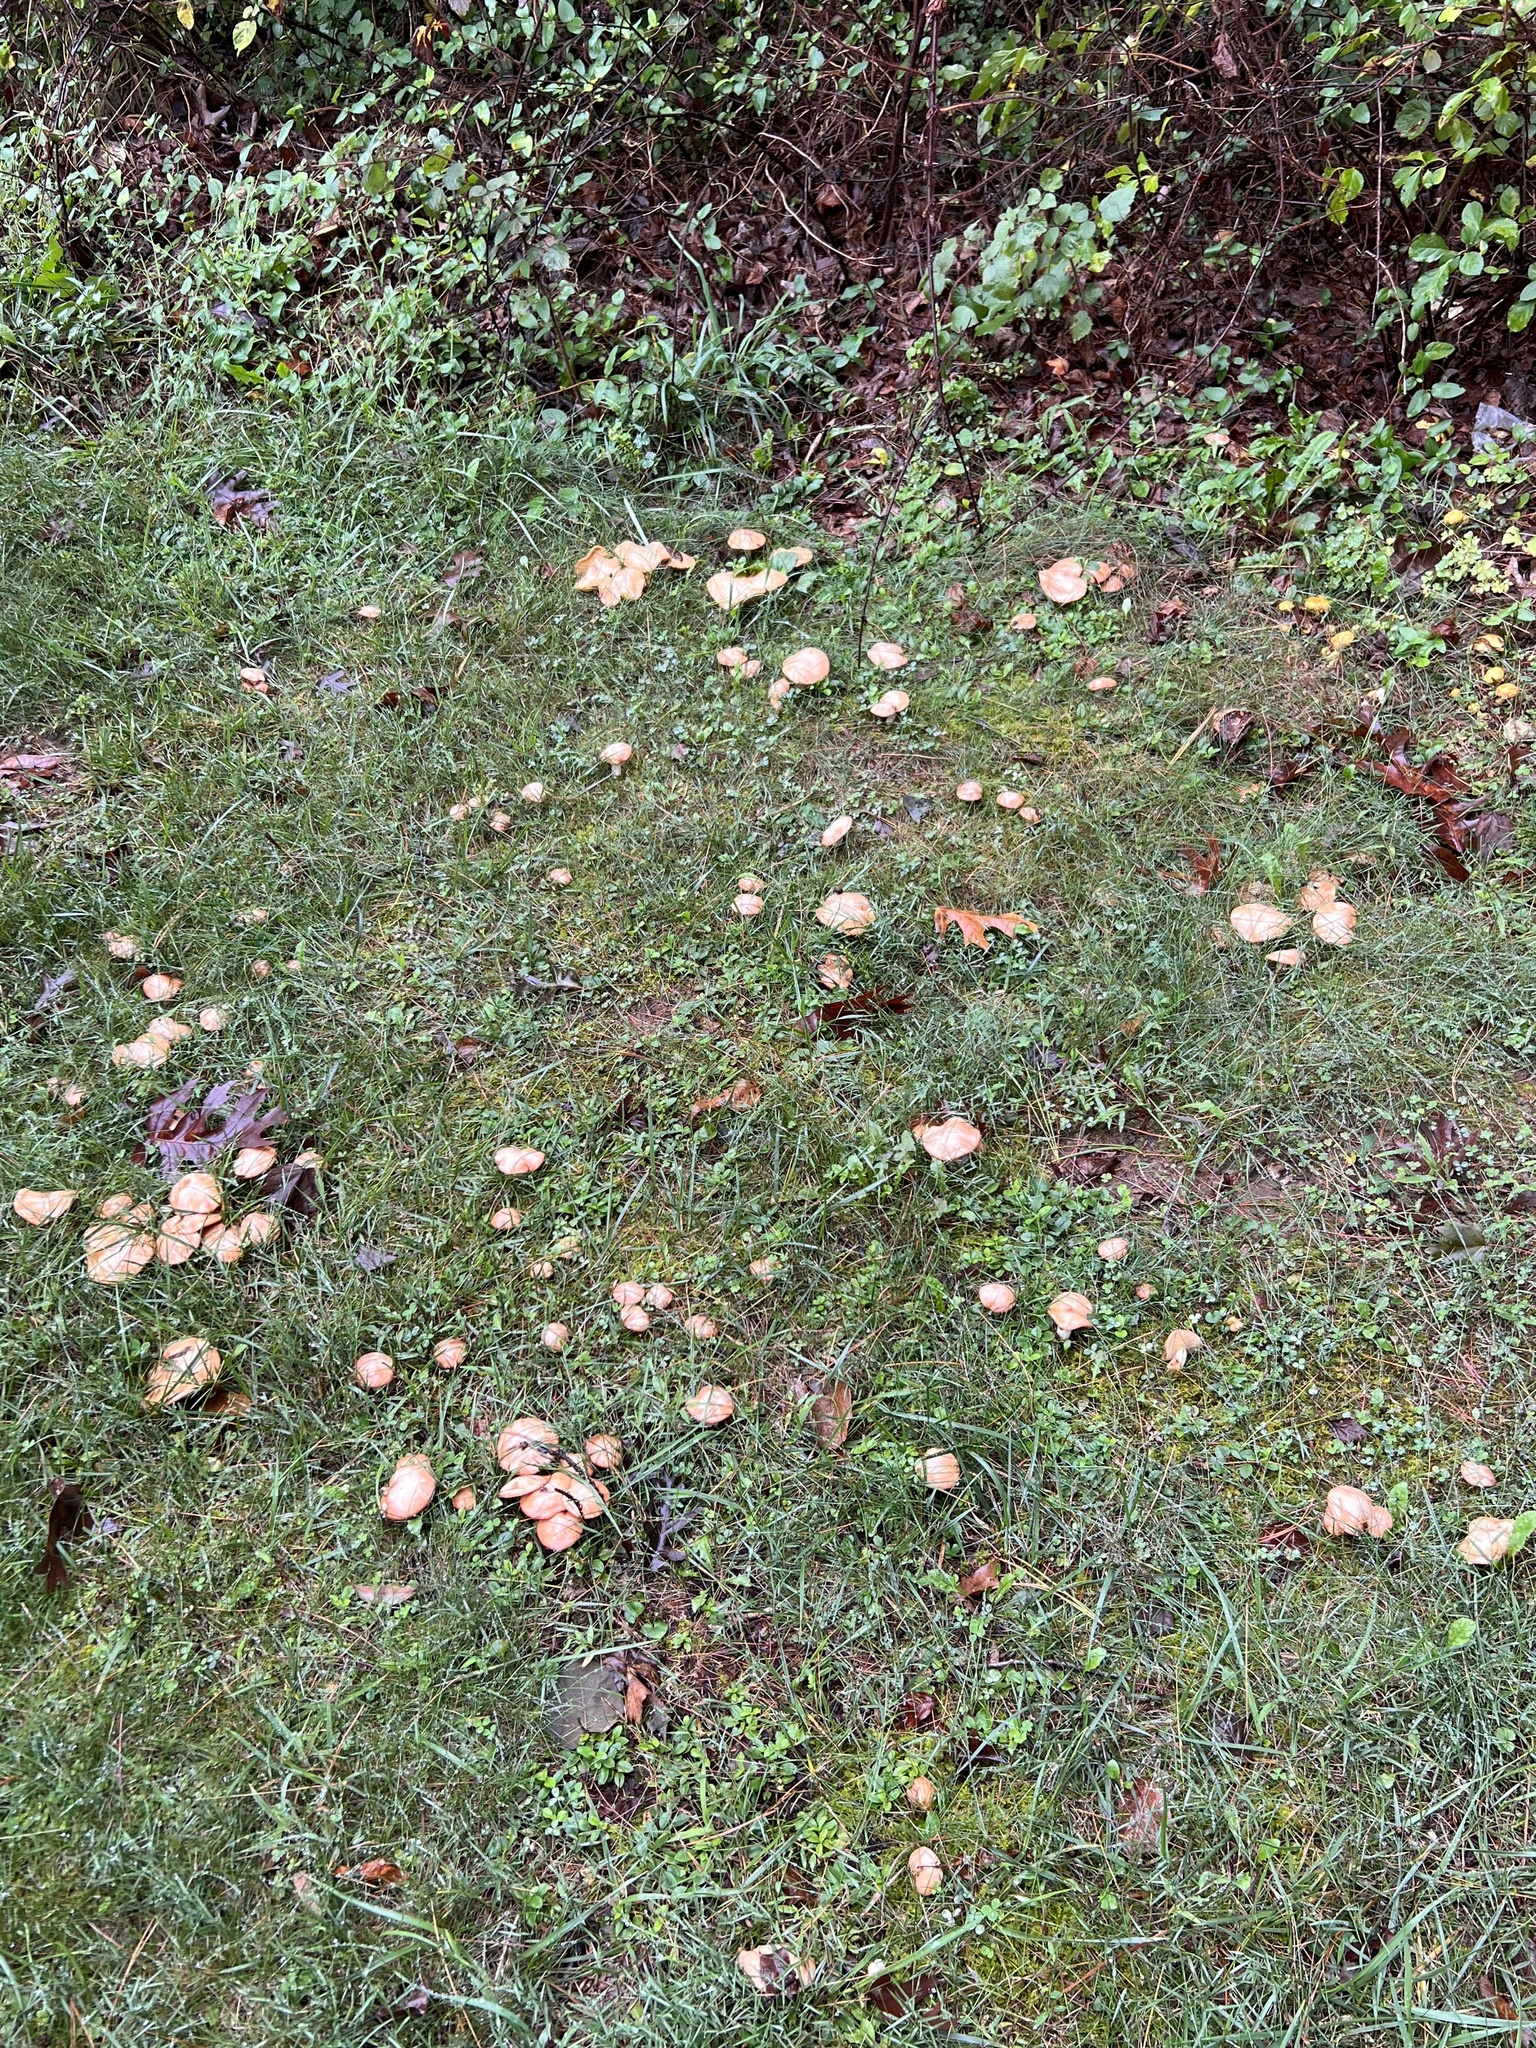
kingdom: Fungi
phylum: Basidiomycota
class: Agaricomycetes
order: Boletales
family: Suillaceae
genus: Fuscoboletinus
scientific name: Fuscoboletinus weaverae
